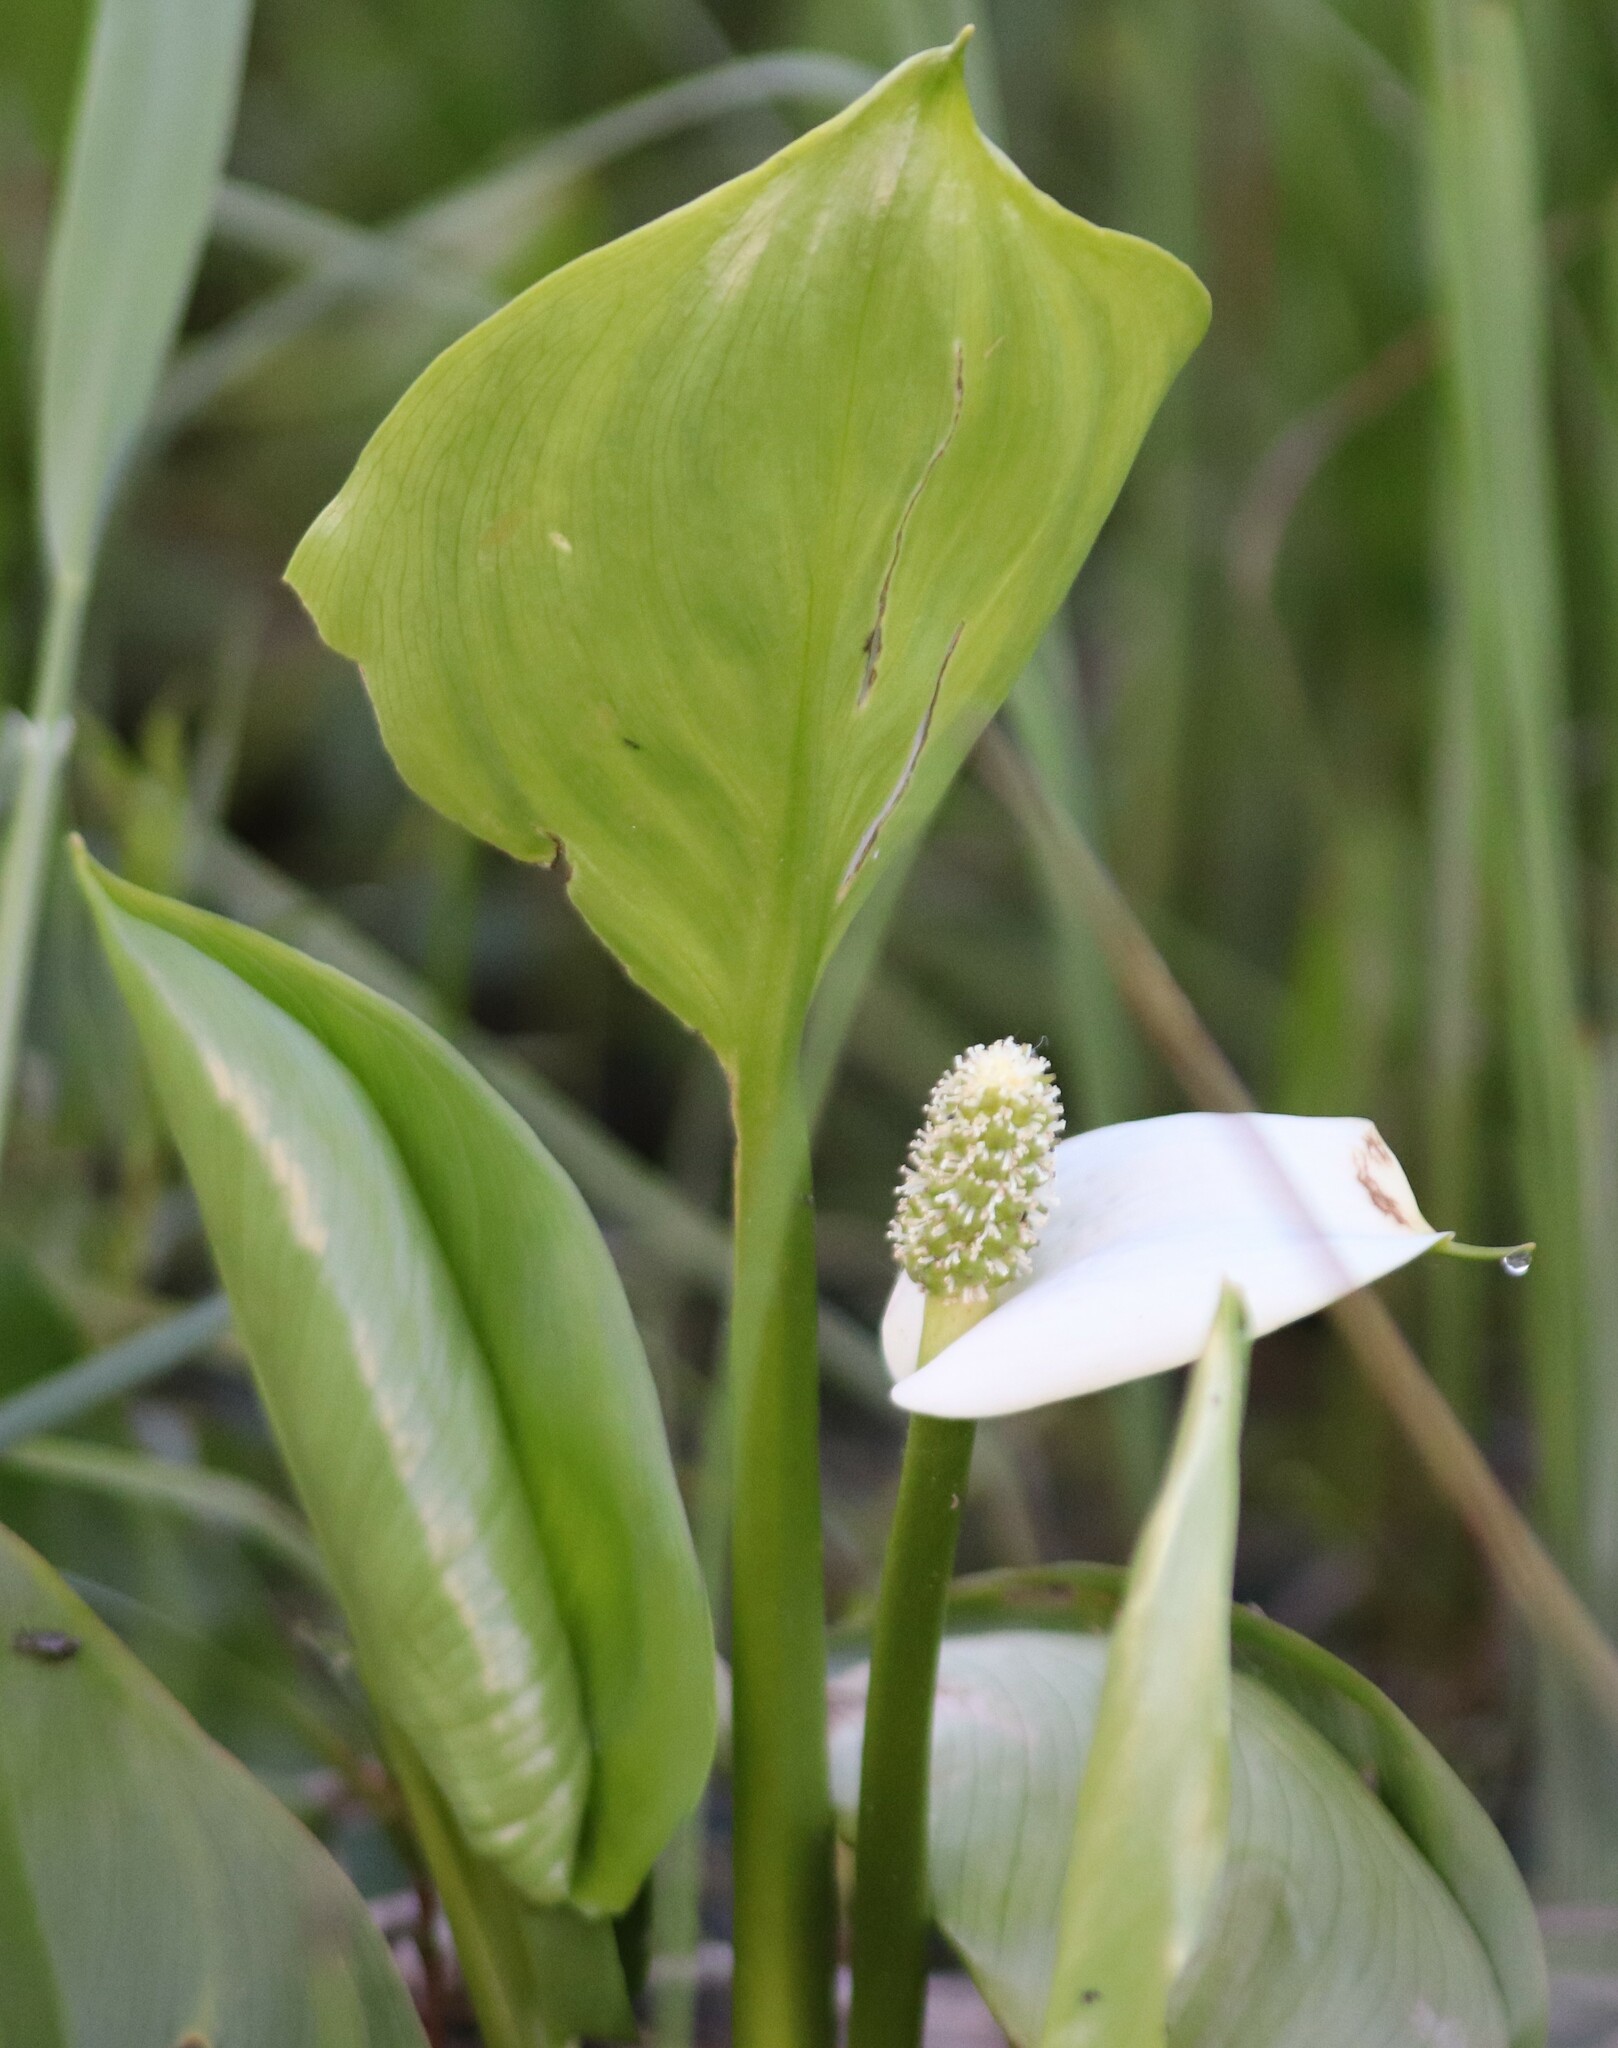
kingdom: Plantae
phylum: Tracheophyta
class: Liliopsida
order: Alismatales
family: Araceae
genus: Calla
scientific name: Calla palustris
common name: Bog arum
